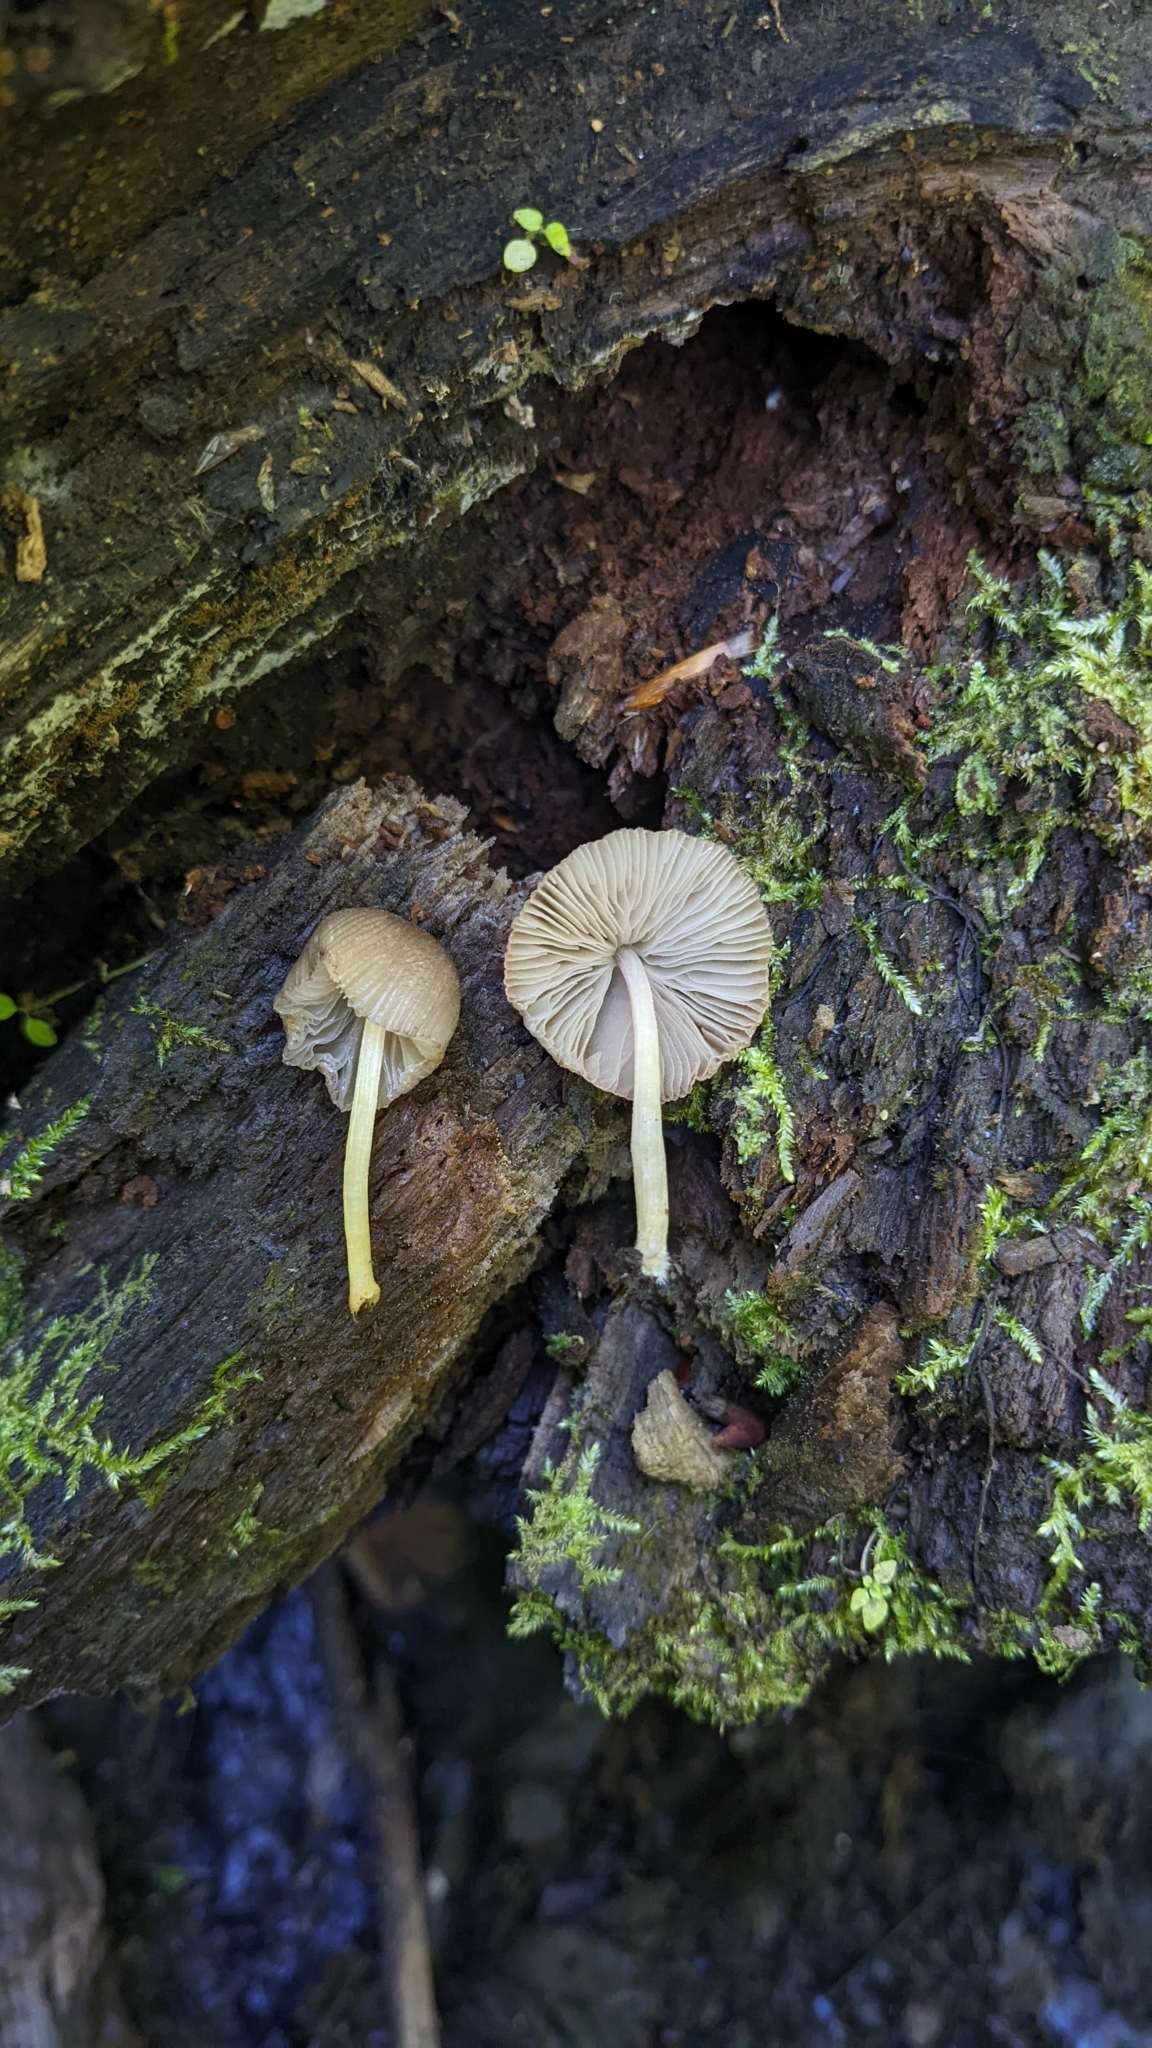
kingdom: Fungi
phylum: Basidiomycota
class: Agaricomycetes
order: Agaricales
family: Pluteaceae
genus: Pluteus
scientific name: Pluteus longistriatus
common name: Pleated pluteus
